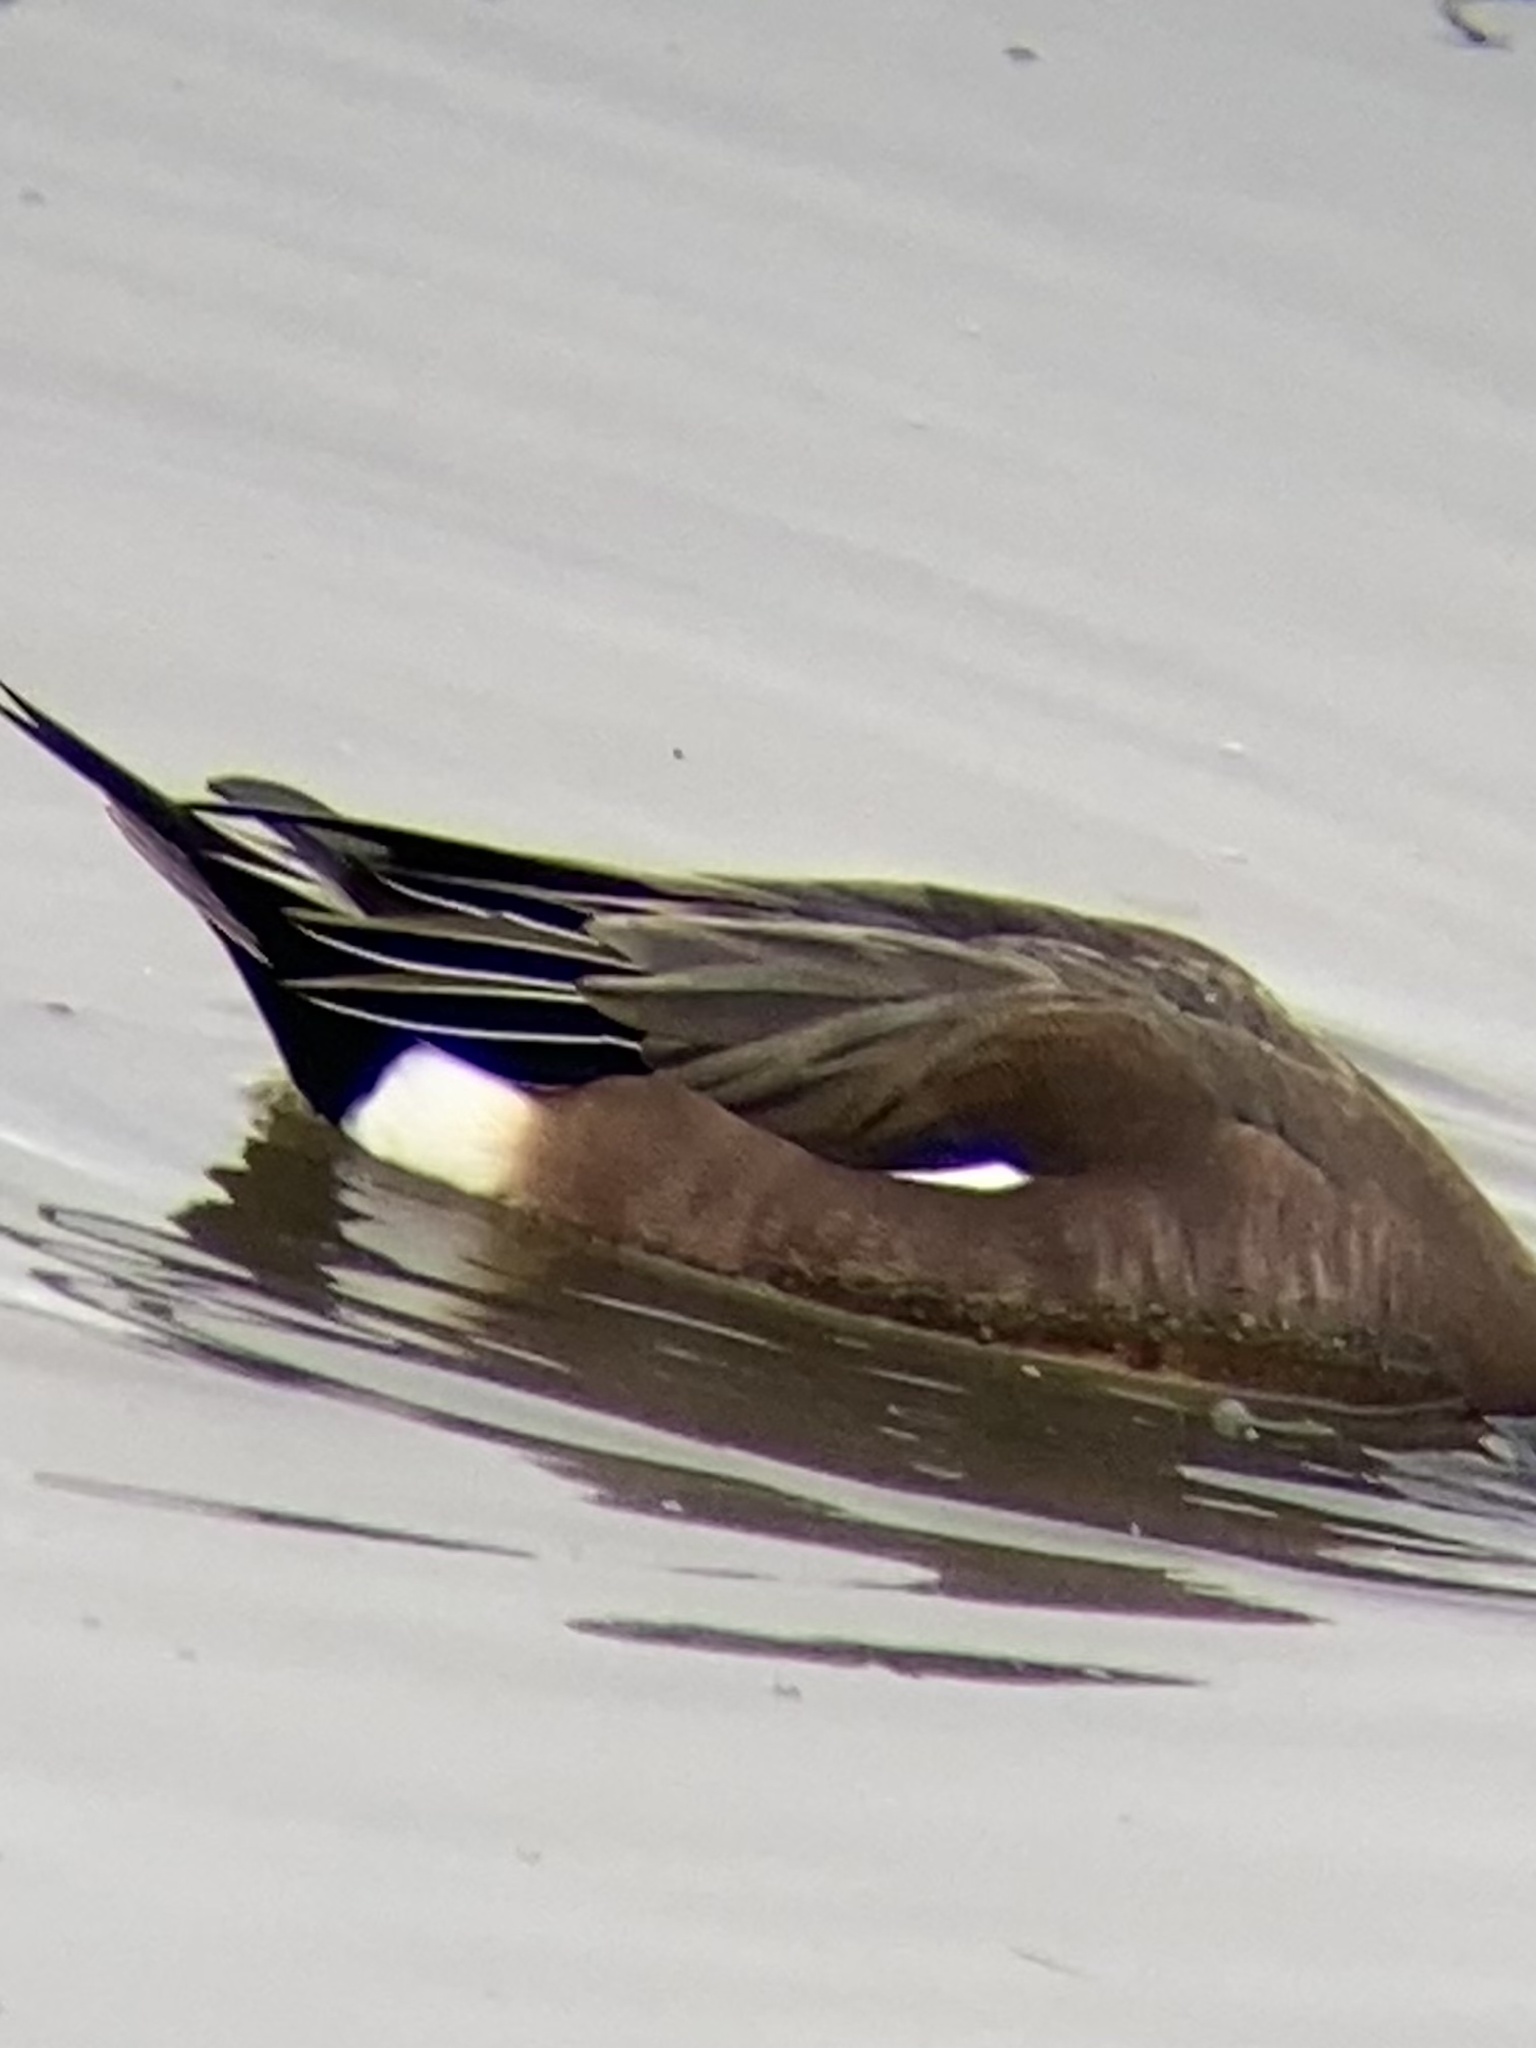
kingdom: Animalia
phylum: Chordata
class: Aves
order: Anseriformes
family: Anatidae
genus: Mareca
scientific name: Mareca americana
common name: American wigeon
